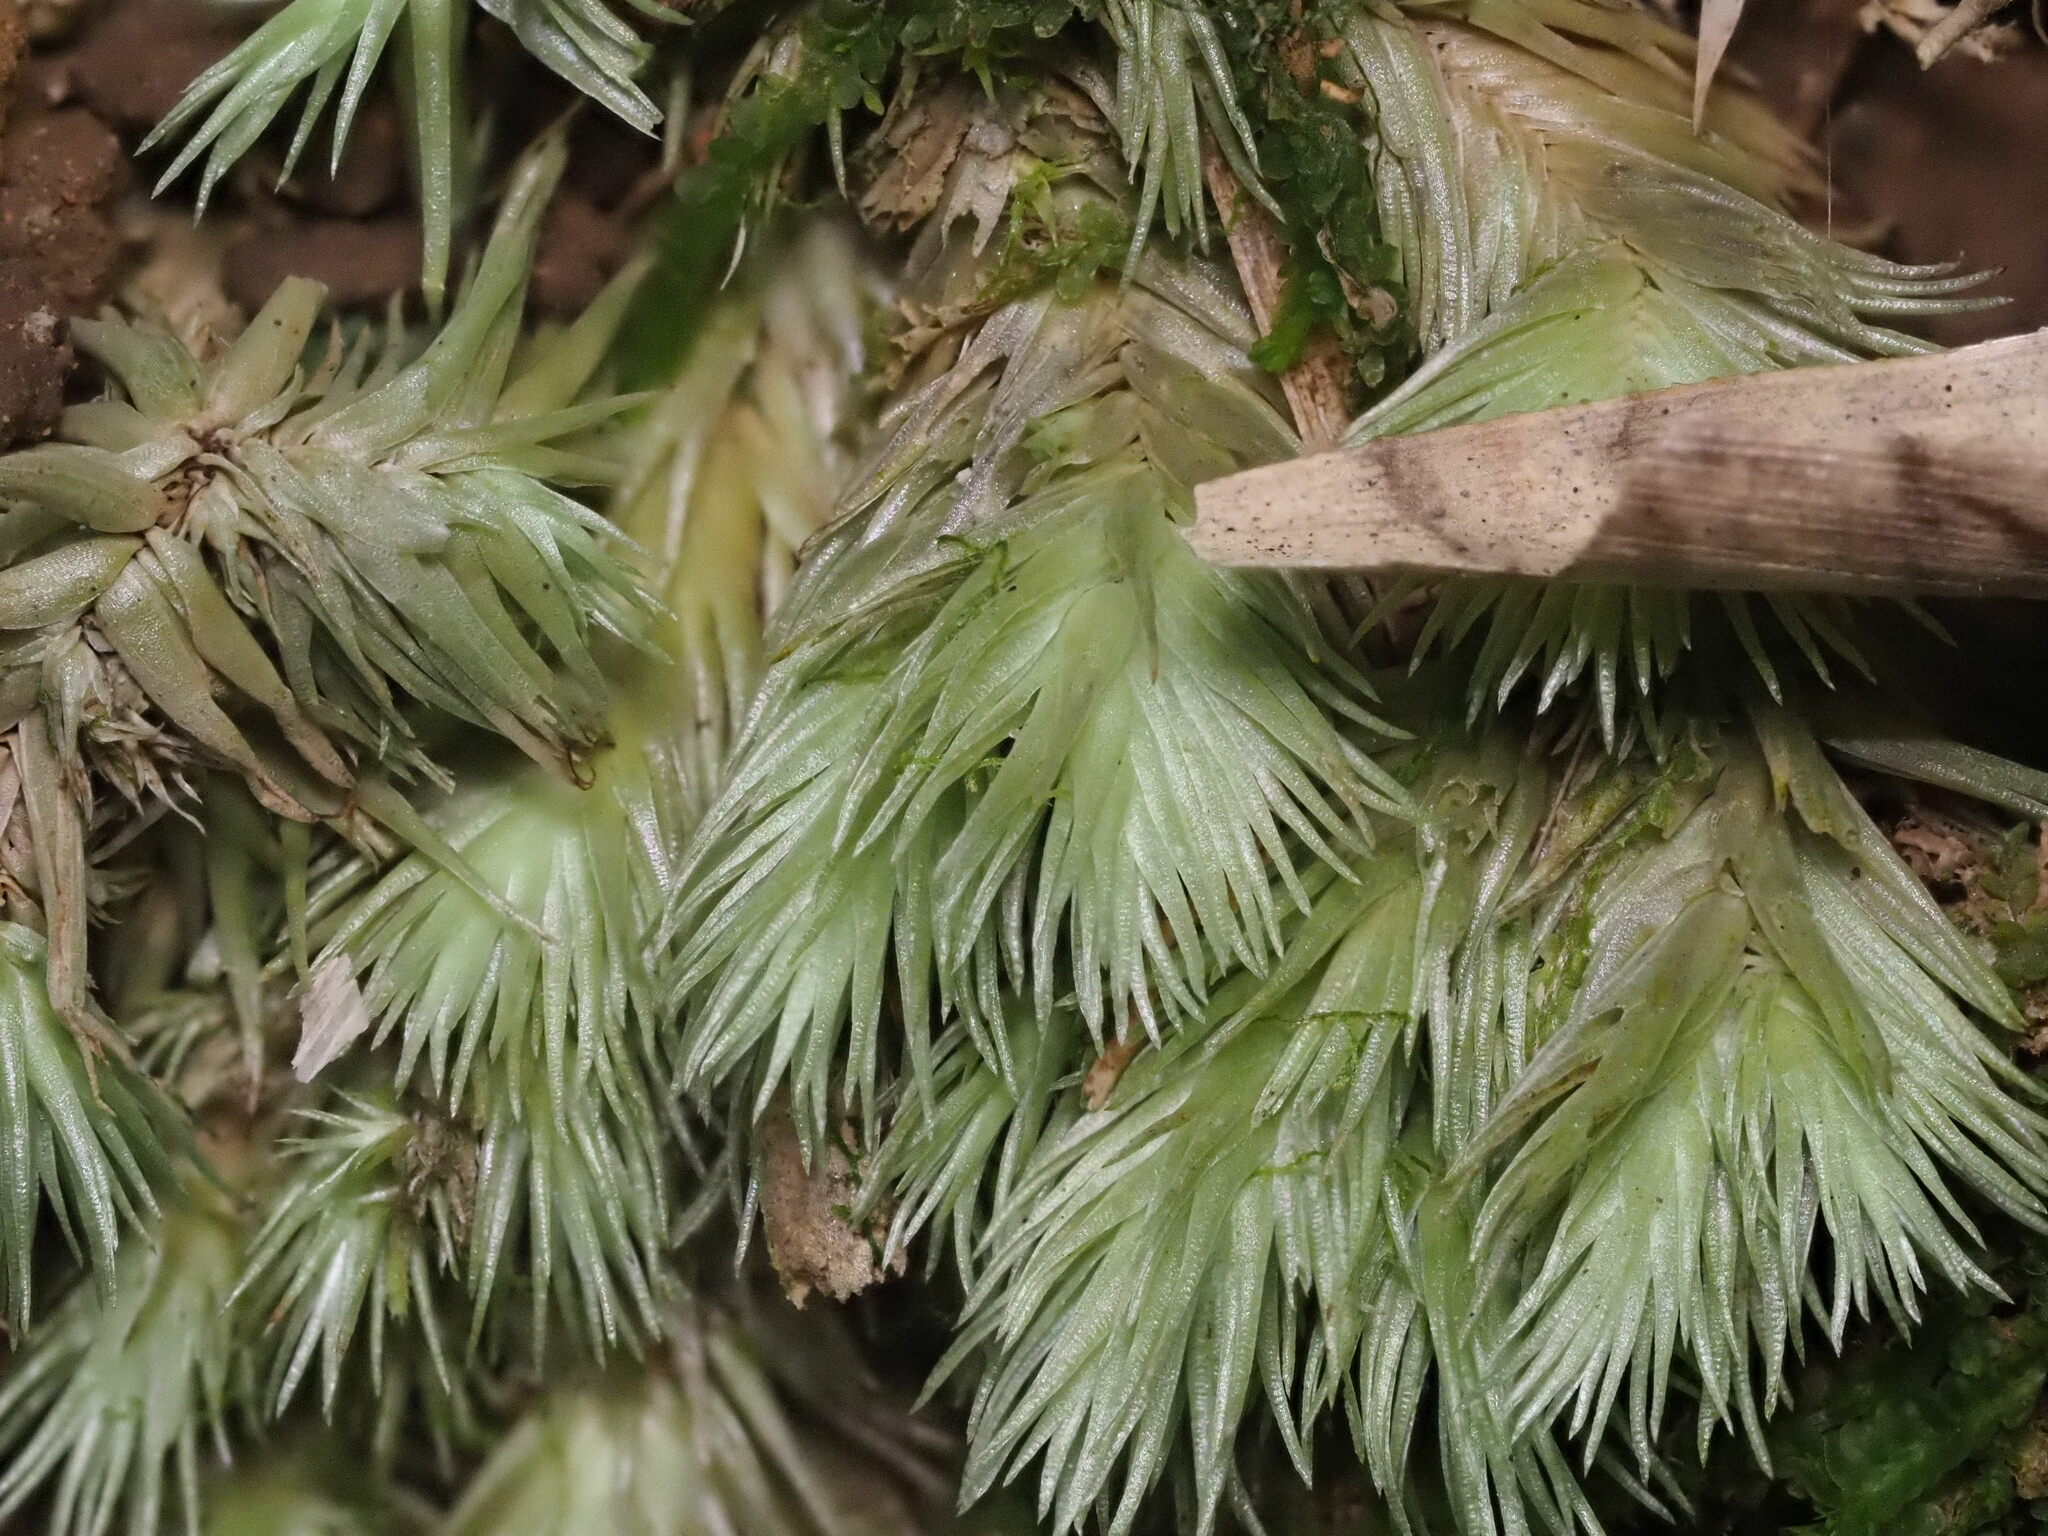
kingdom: Plantae
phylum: Bryophyta
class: Bryopsida
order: Dicranales
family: Leucobryaceae
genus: Leucobryum
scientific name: Leucobryum seemannii
